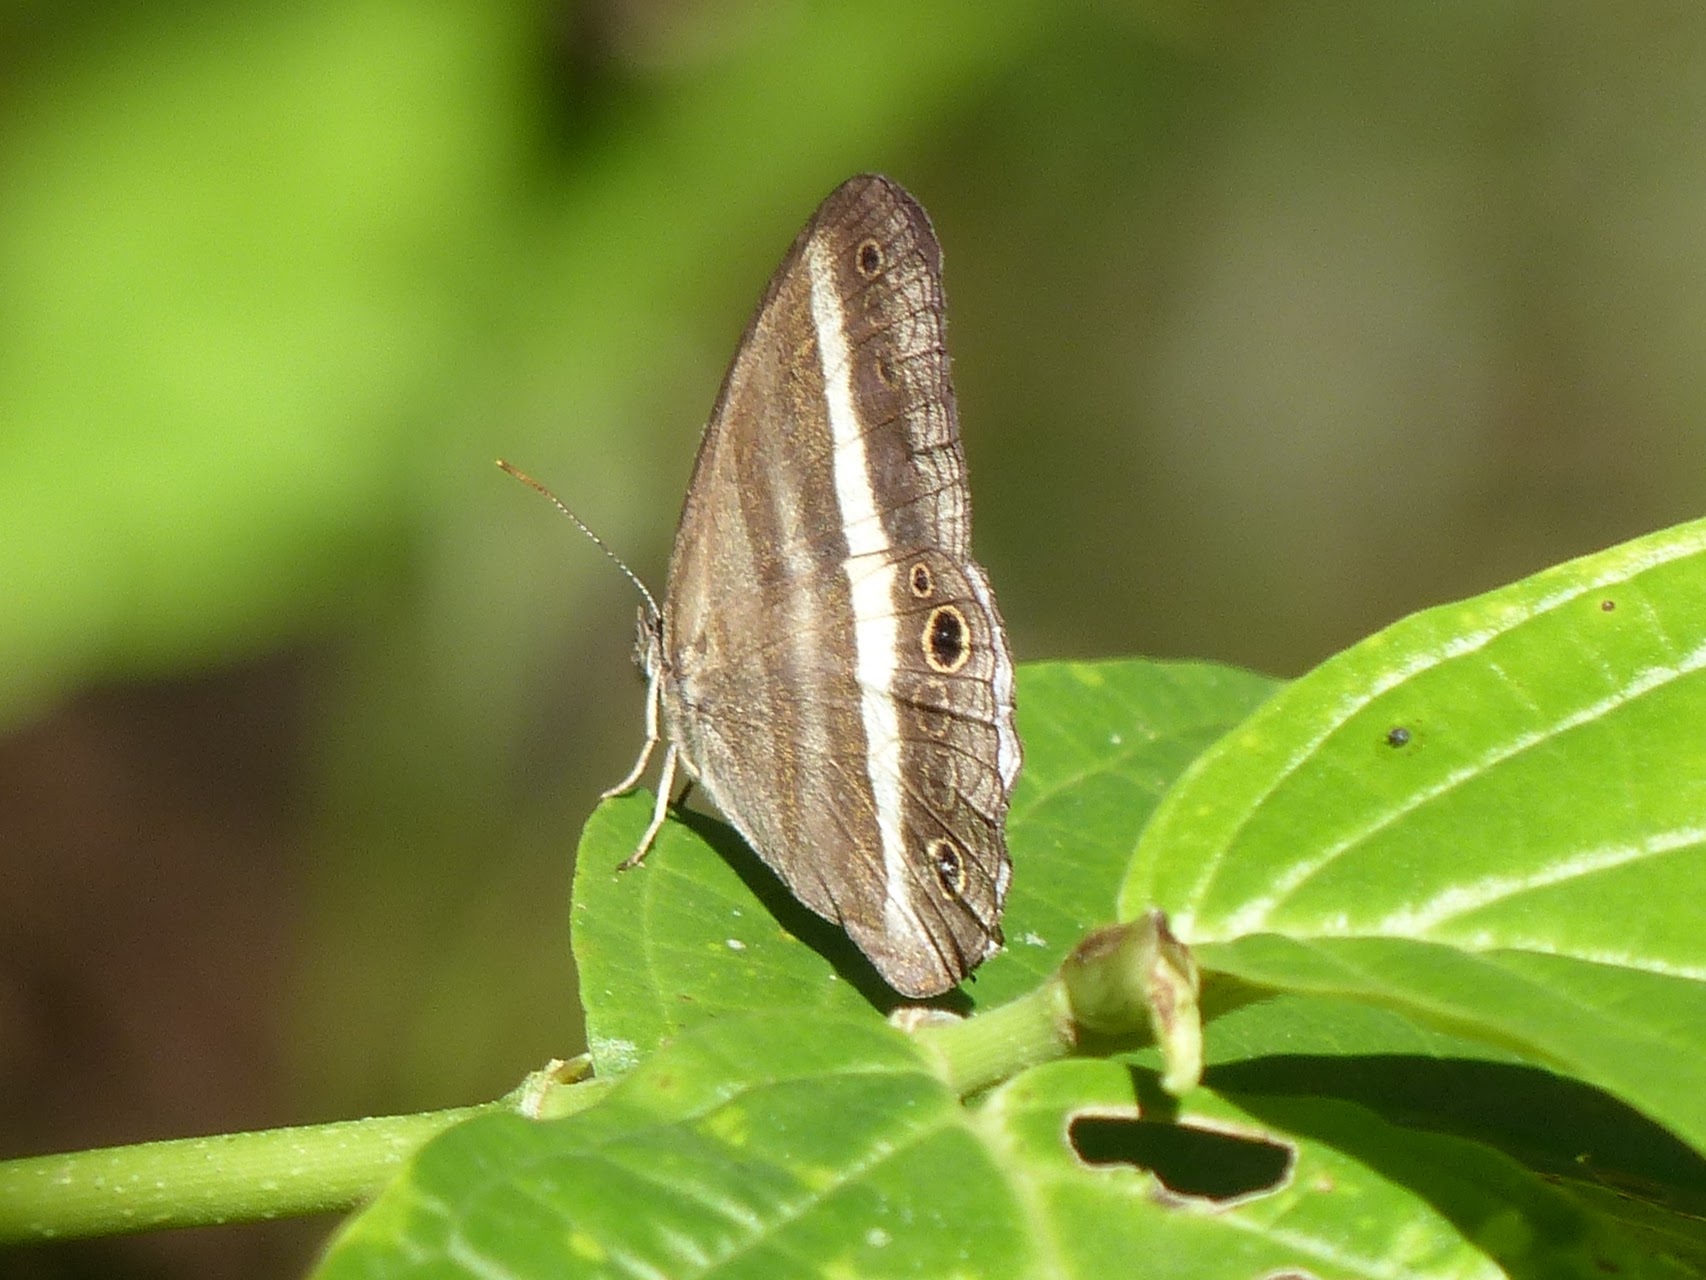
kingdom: Animalia
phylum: Arthropoda
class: Insecta
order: Lepidoptera
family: Nymphalidae
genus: Pareuptychia
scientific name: Pareuptychia summandosa
